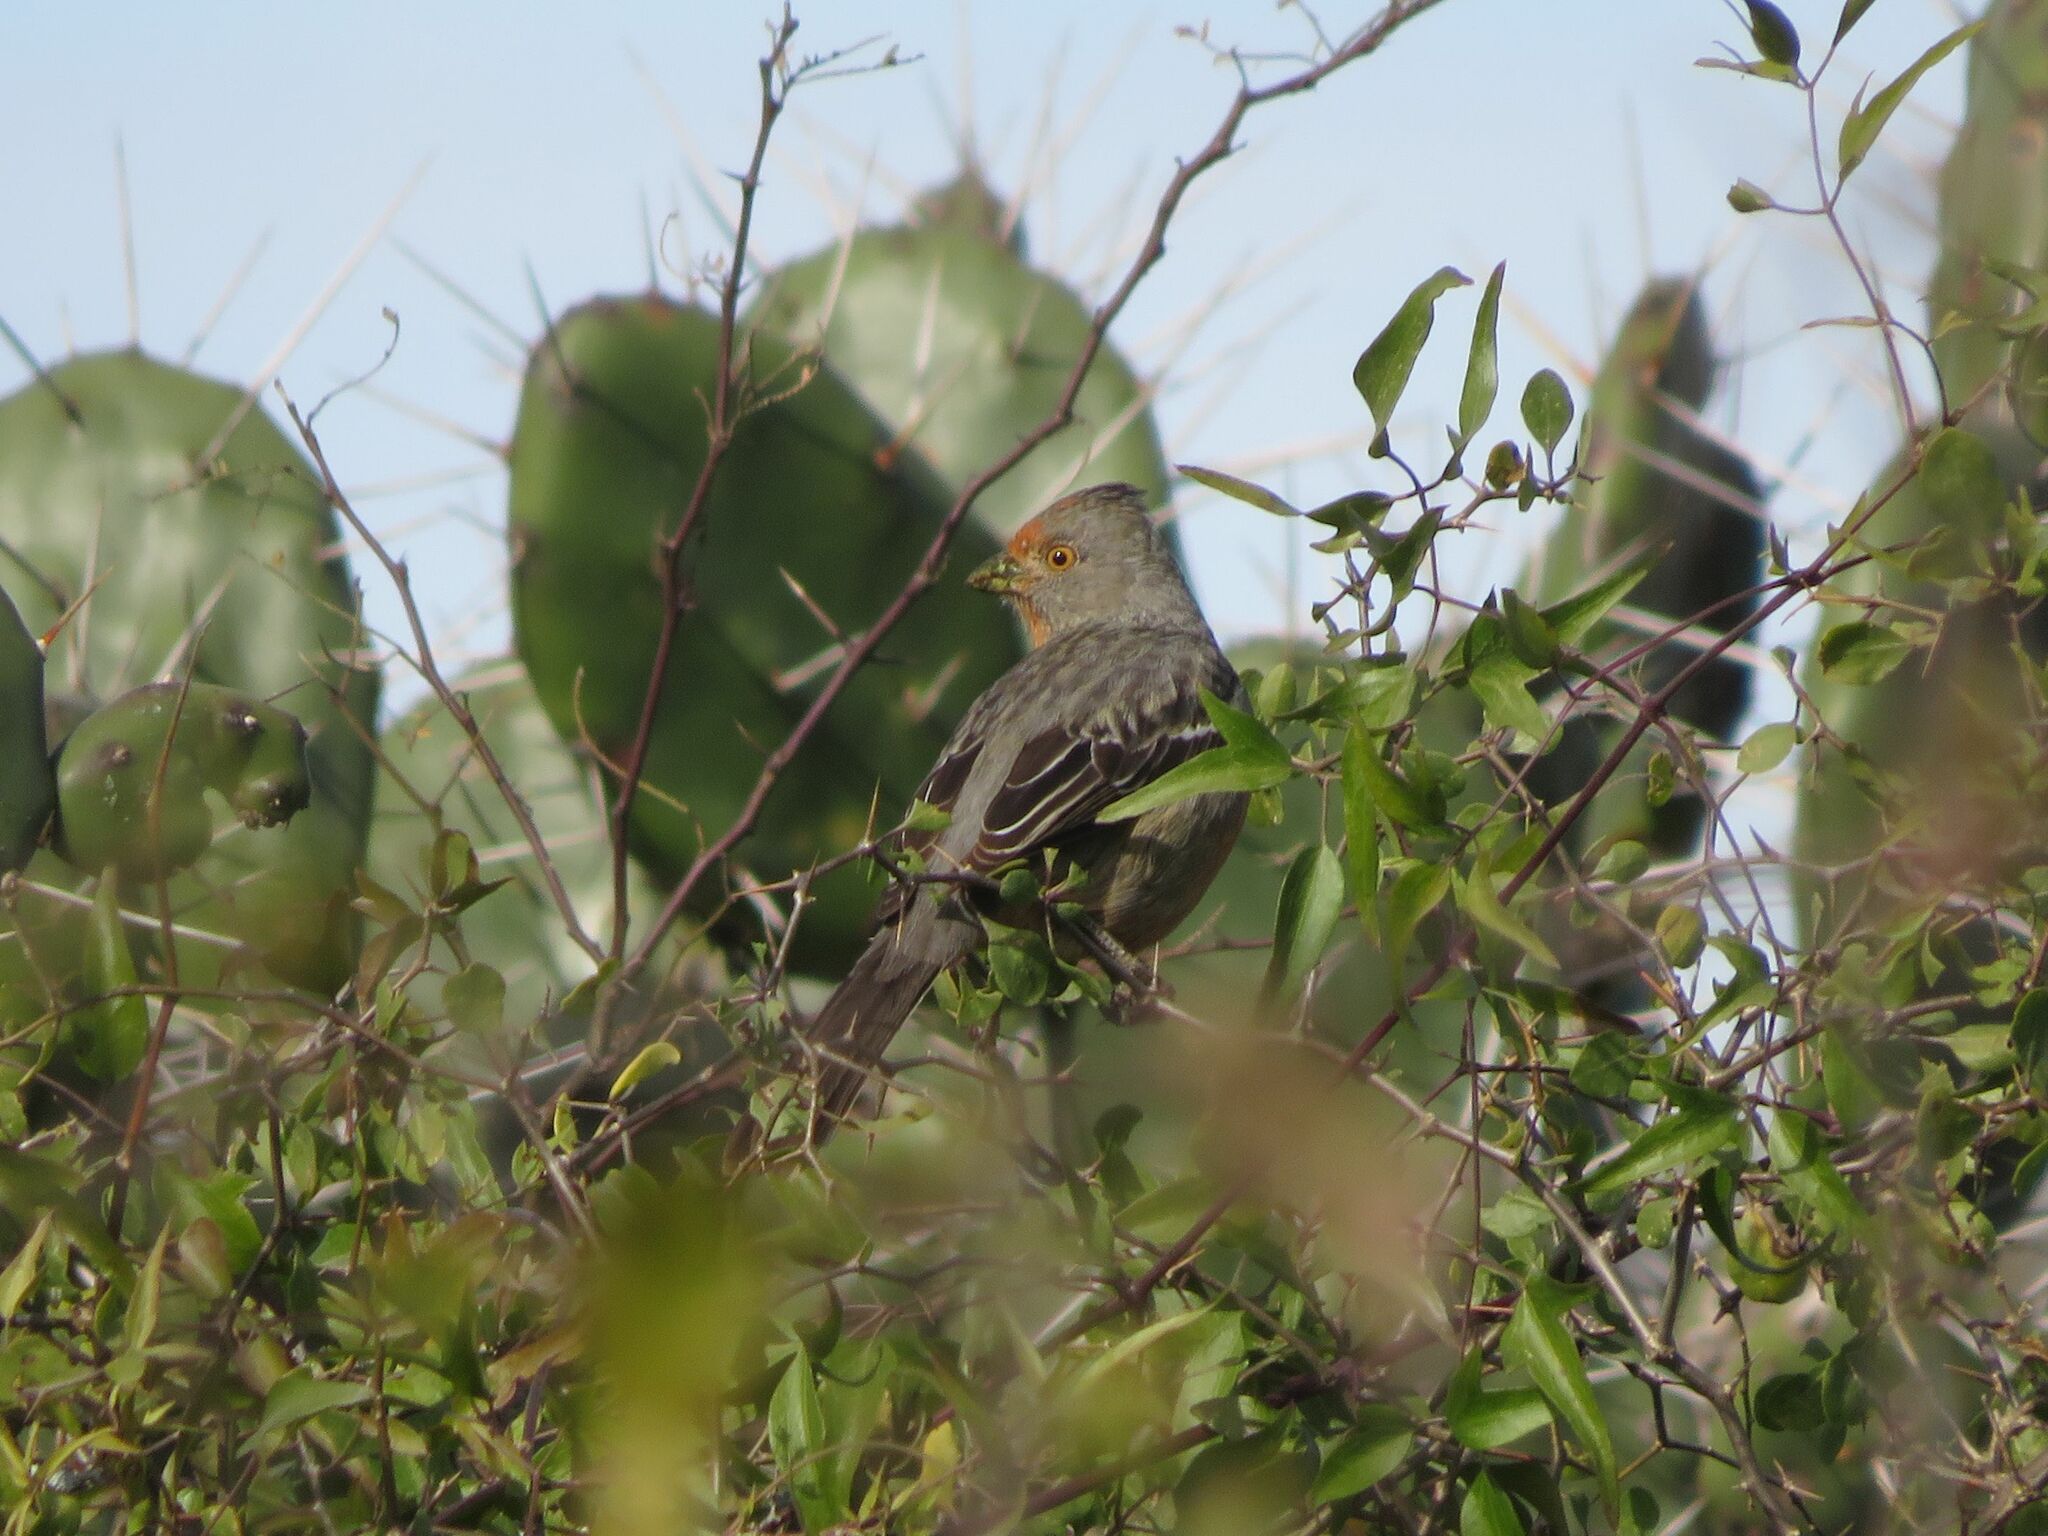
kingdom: Animalia
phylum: Chordata
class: Aves
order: Passeriformes
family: Cotingidae
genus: Phytotoma
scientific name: Phytotoma rutila
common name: White-tipped plantcutter
